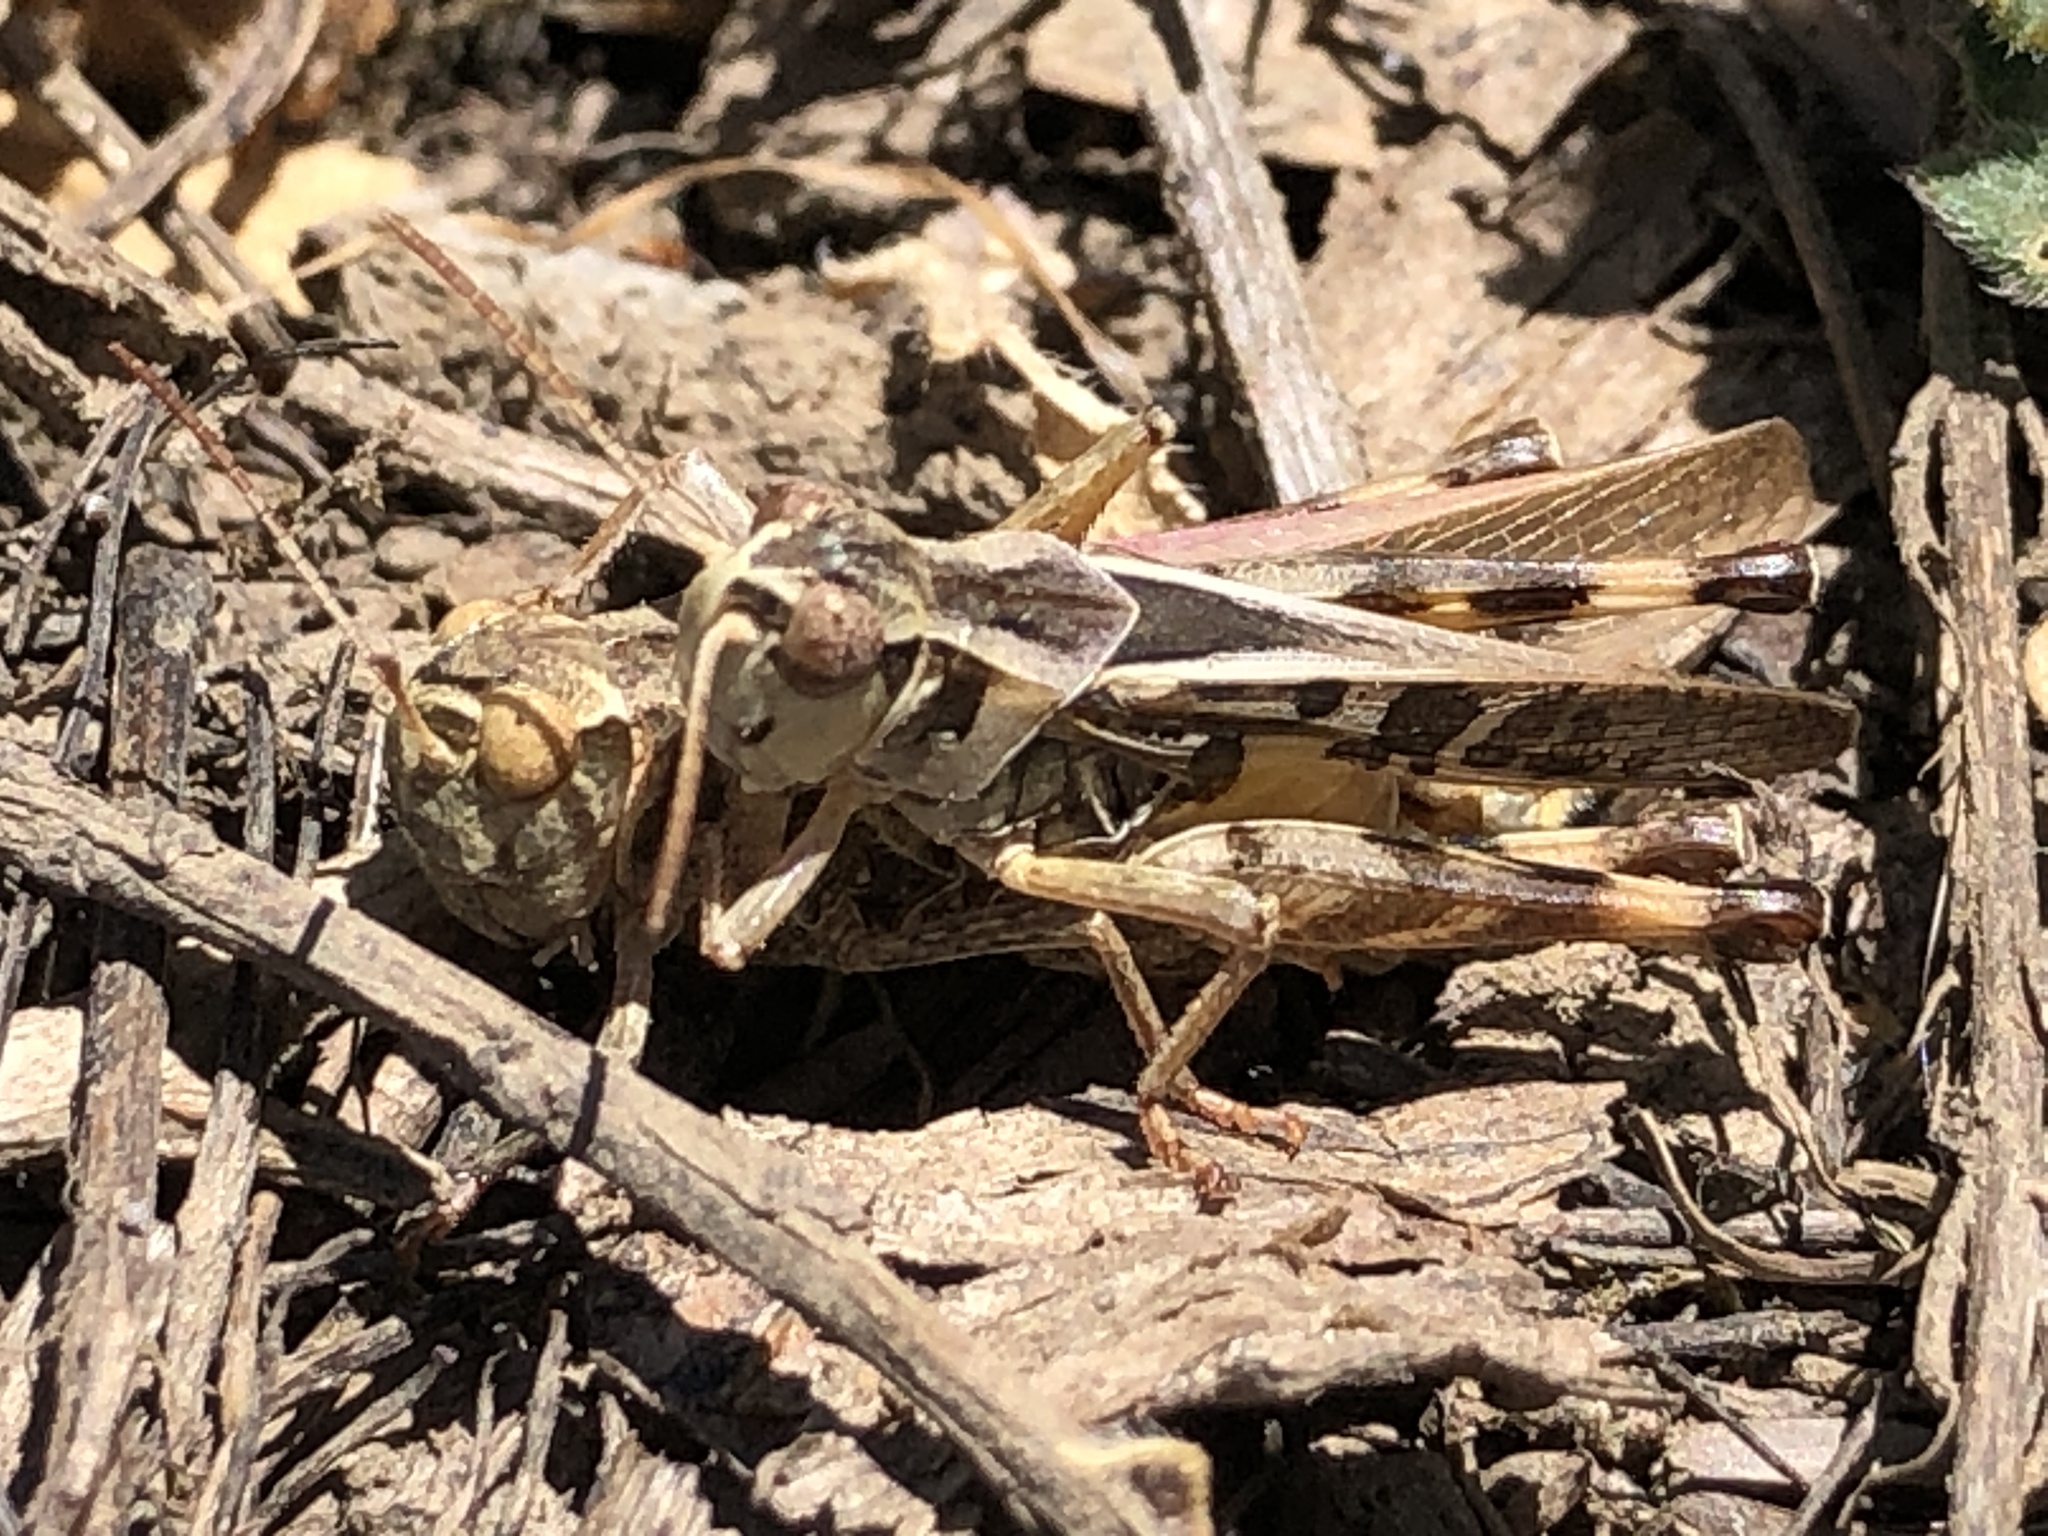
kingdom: Animalia
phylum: Arthropoda
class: Insecta
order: Orthoptera
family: Acrididae
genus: Camnula
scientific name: Camnula pellucida
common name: Clear-winged grasshopper
